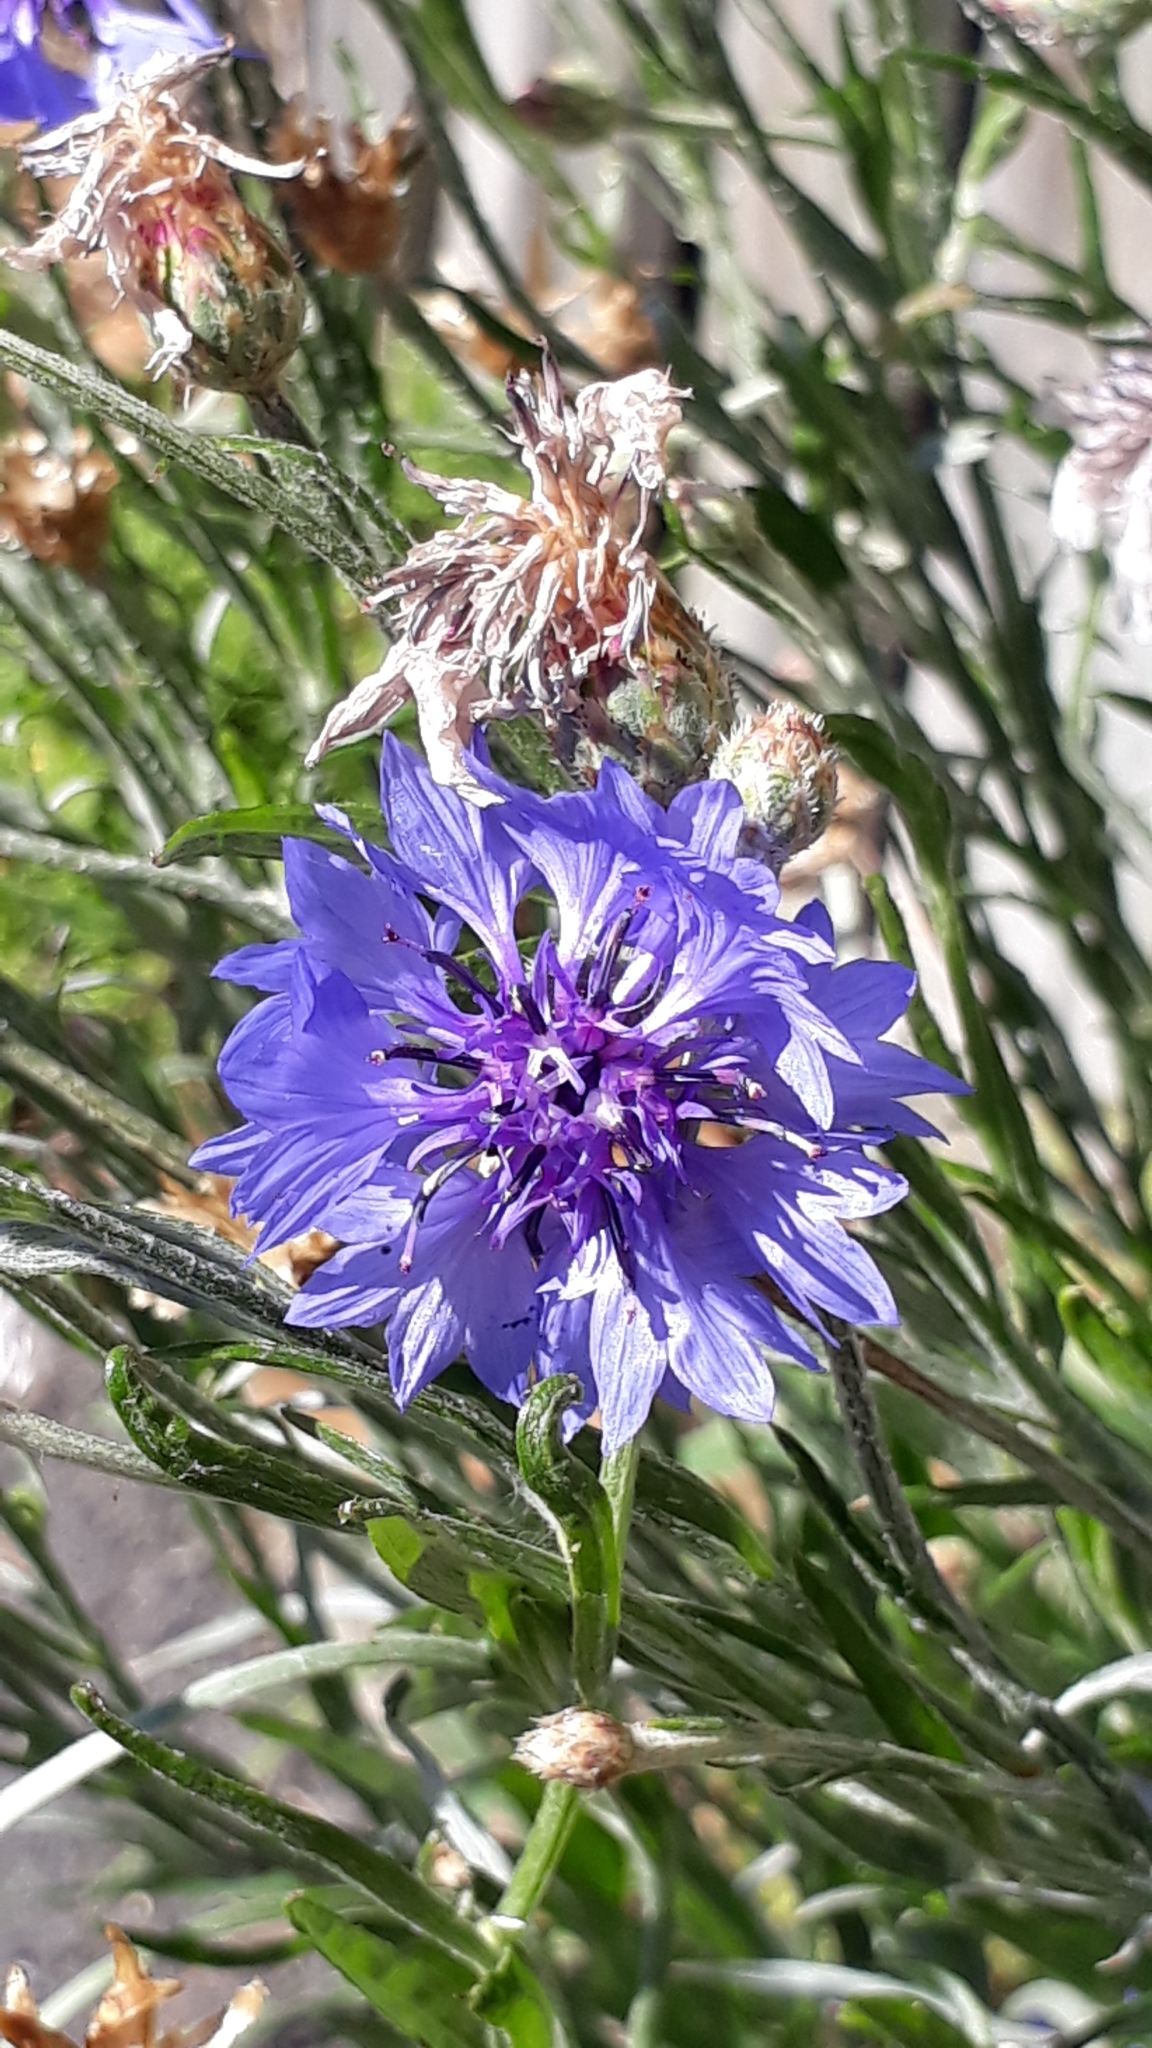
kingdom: Plantae
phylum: Tracheophyta
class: Magnoliopsida
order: Asterales
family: Asteraceae
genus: Centaurea
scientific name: Centaurea cyanus
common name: Cornflower
